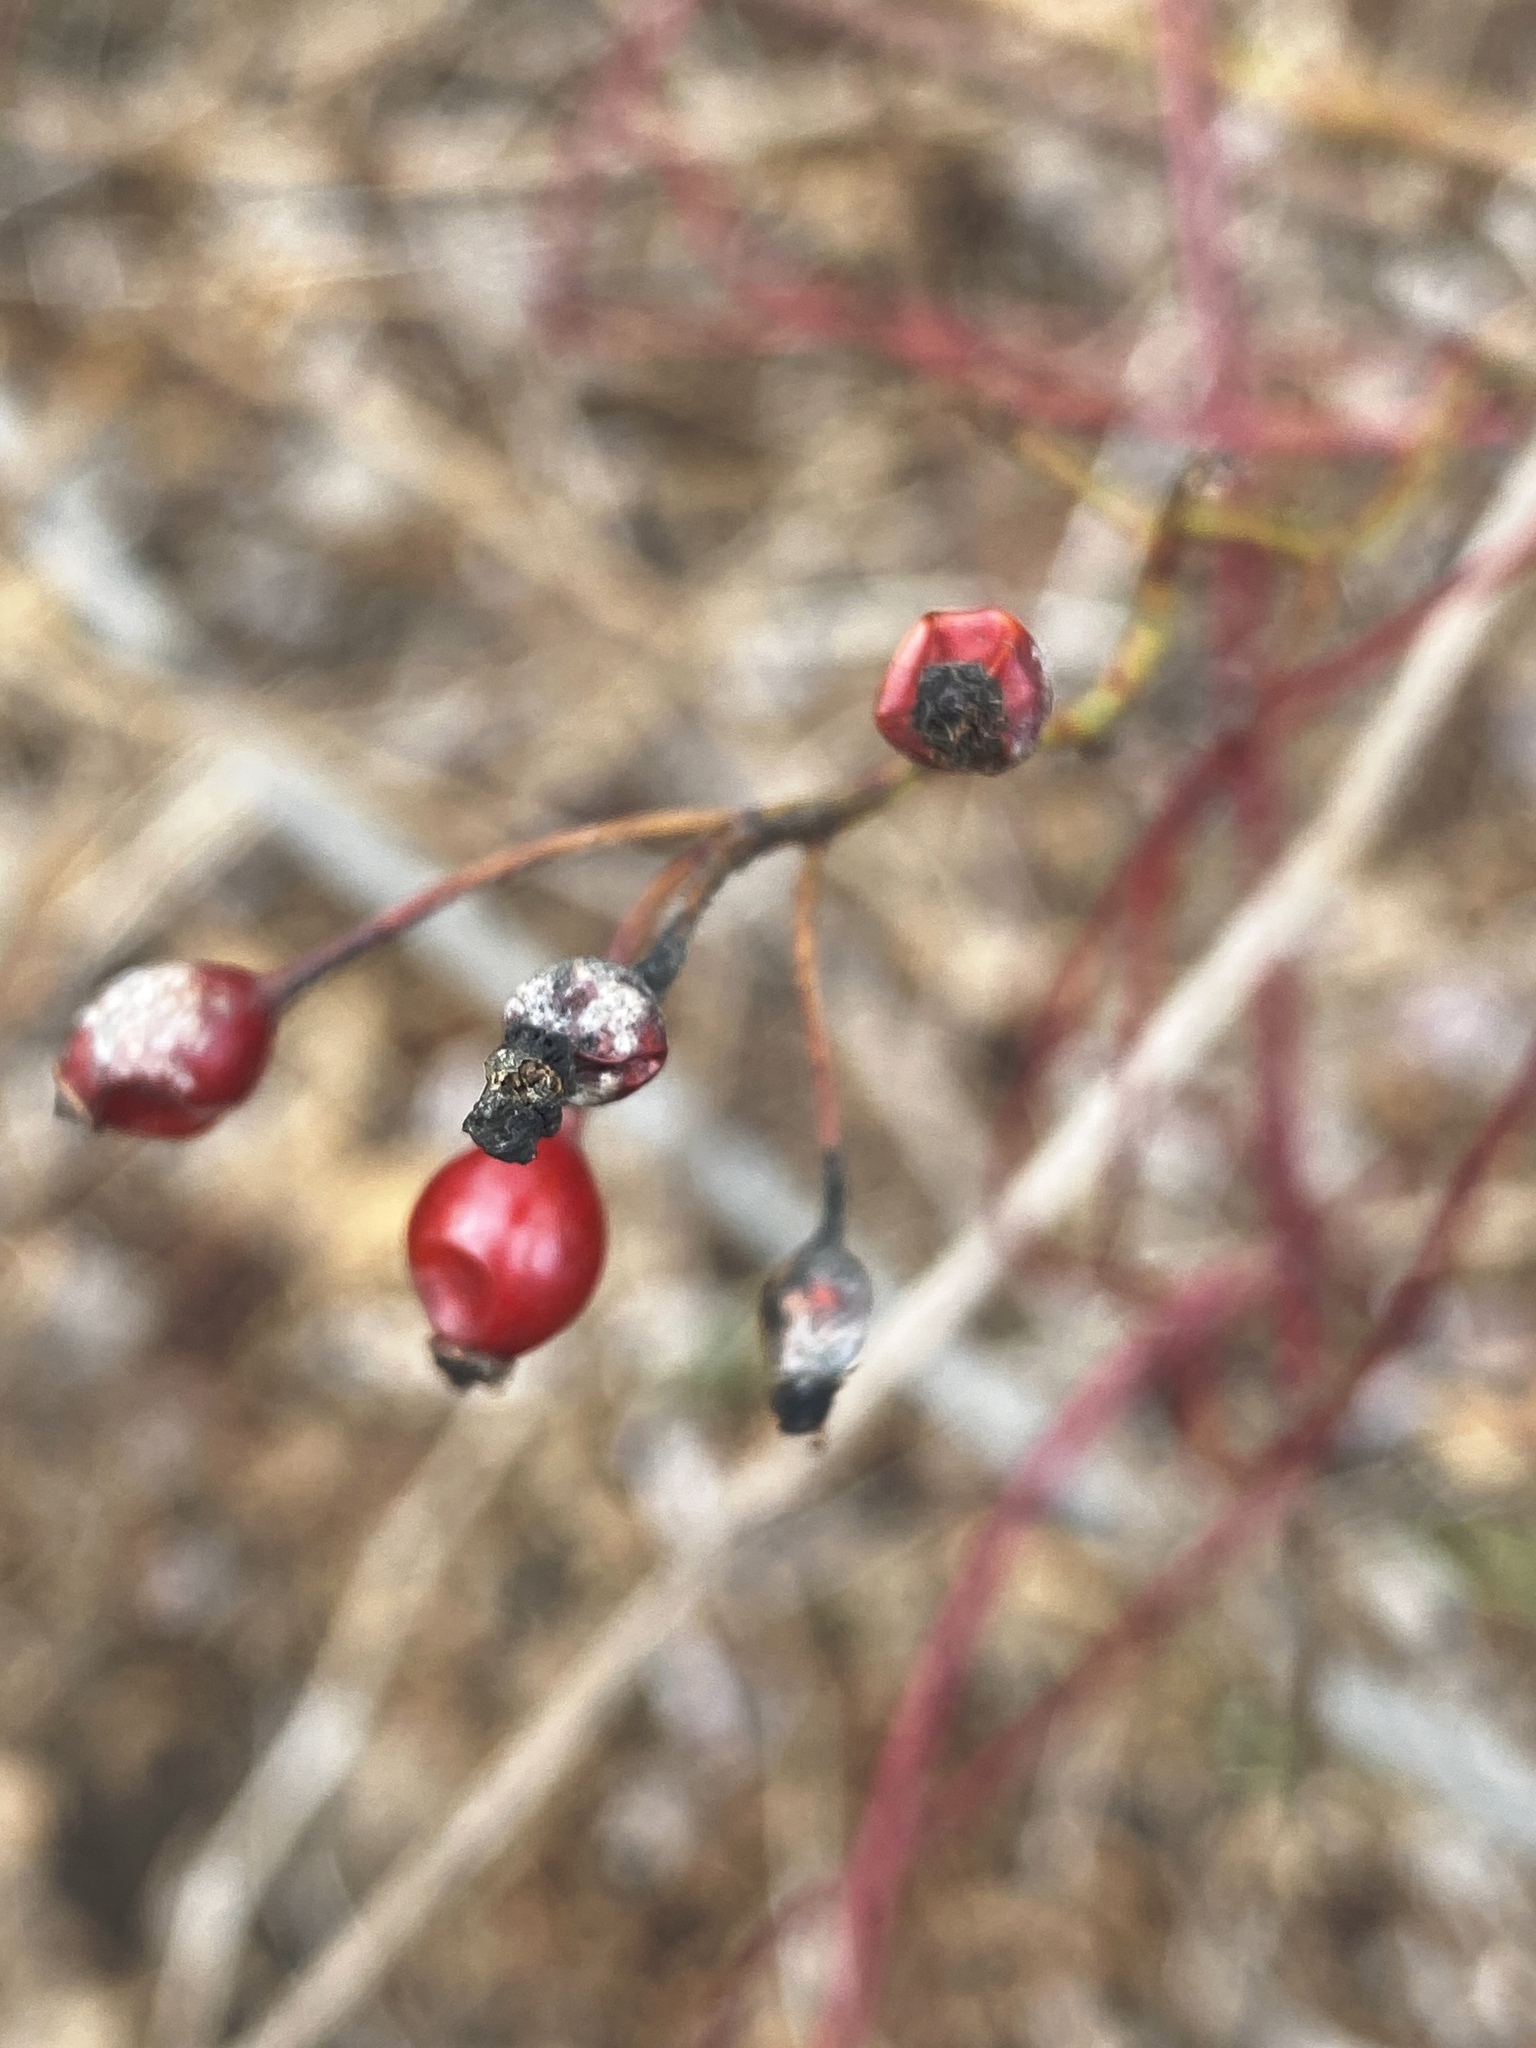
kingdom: Plantae
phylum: Tracheophyta
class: Magnoliopsida
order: Rosales
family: Rosaceae
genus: Rosa
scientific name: Rosa multiflora
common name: Multiflora rose
